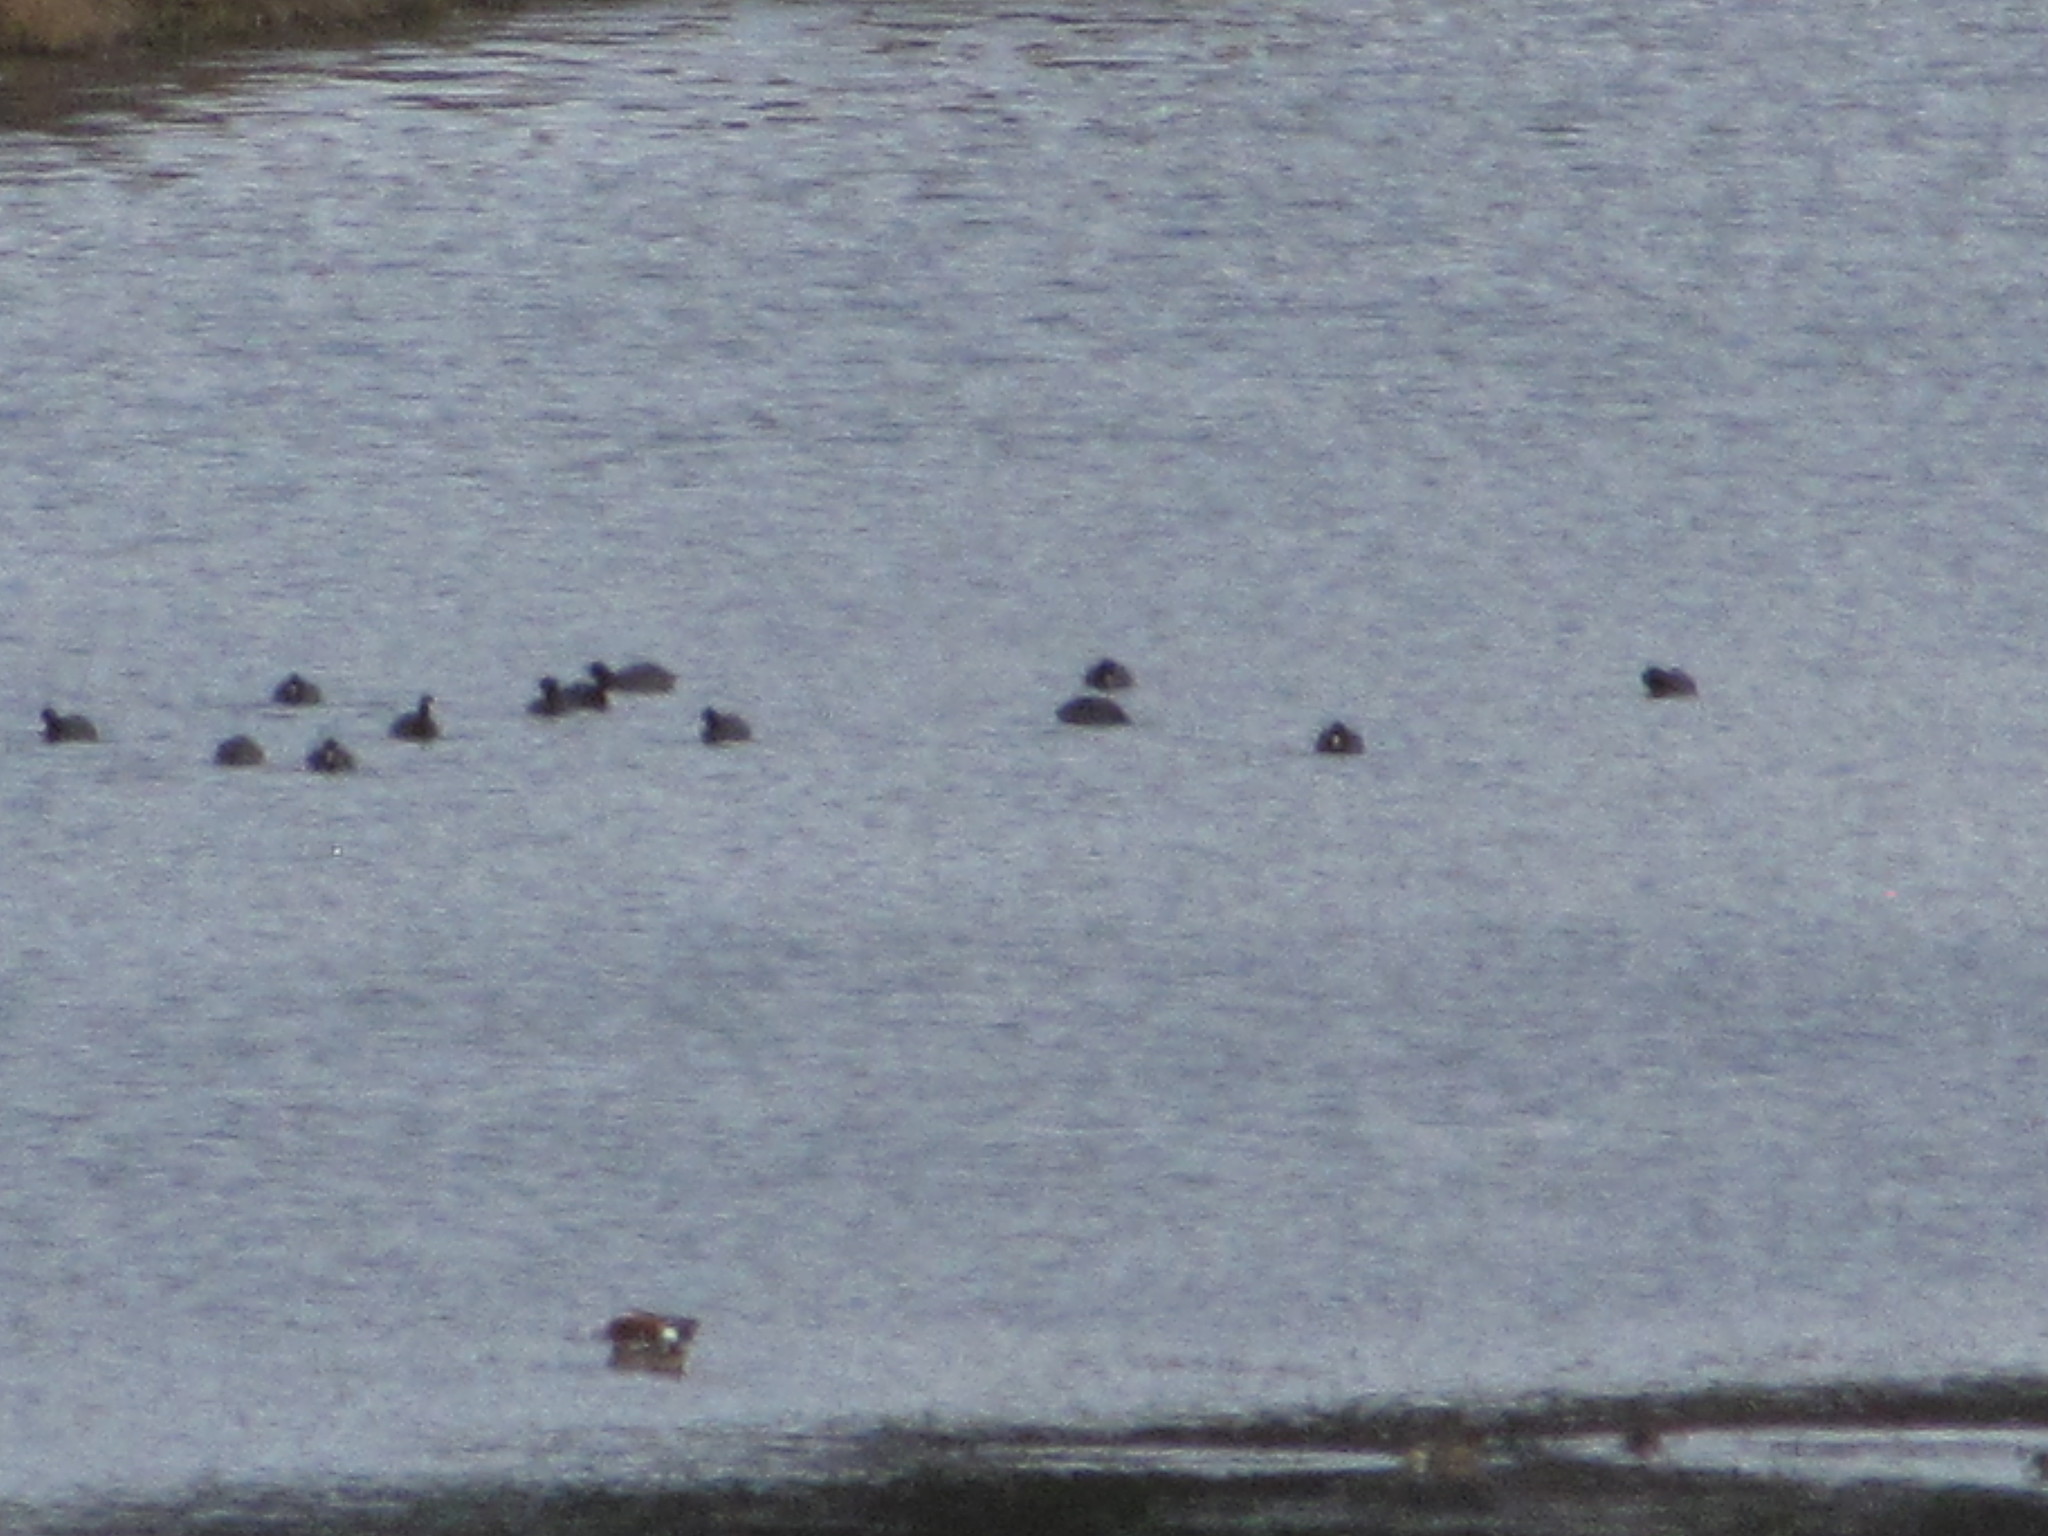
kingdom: Animalia
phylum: Chordata
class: Aves
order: Gruiformes
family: Rallidae
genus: Fulica
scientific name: Fulica americana
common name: American coot
